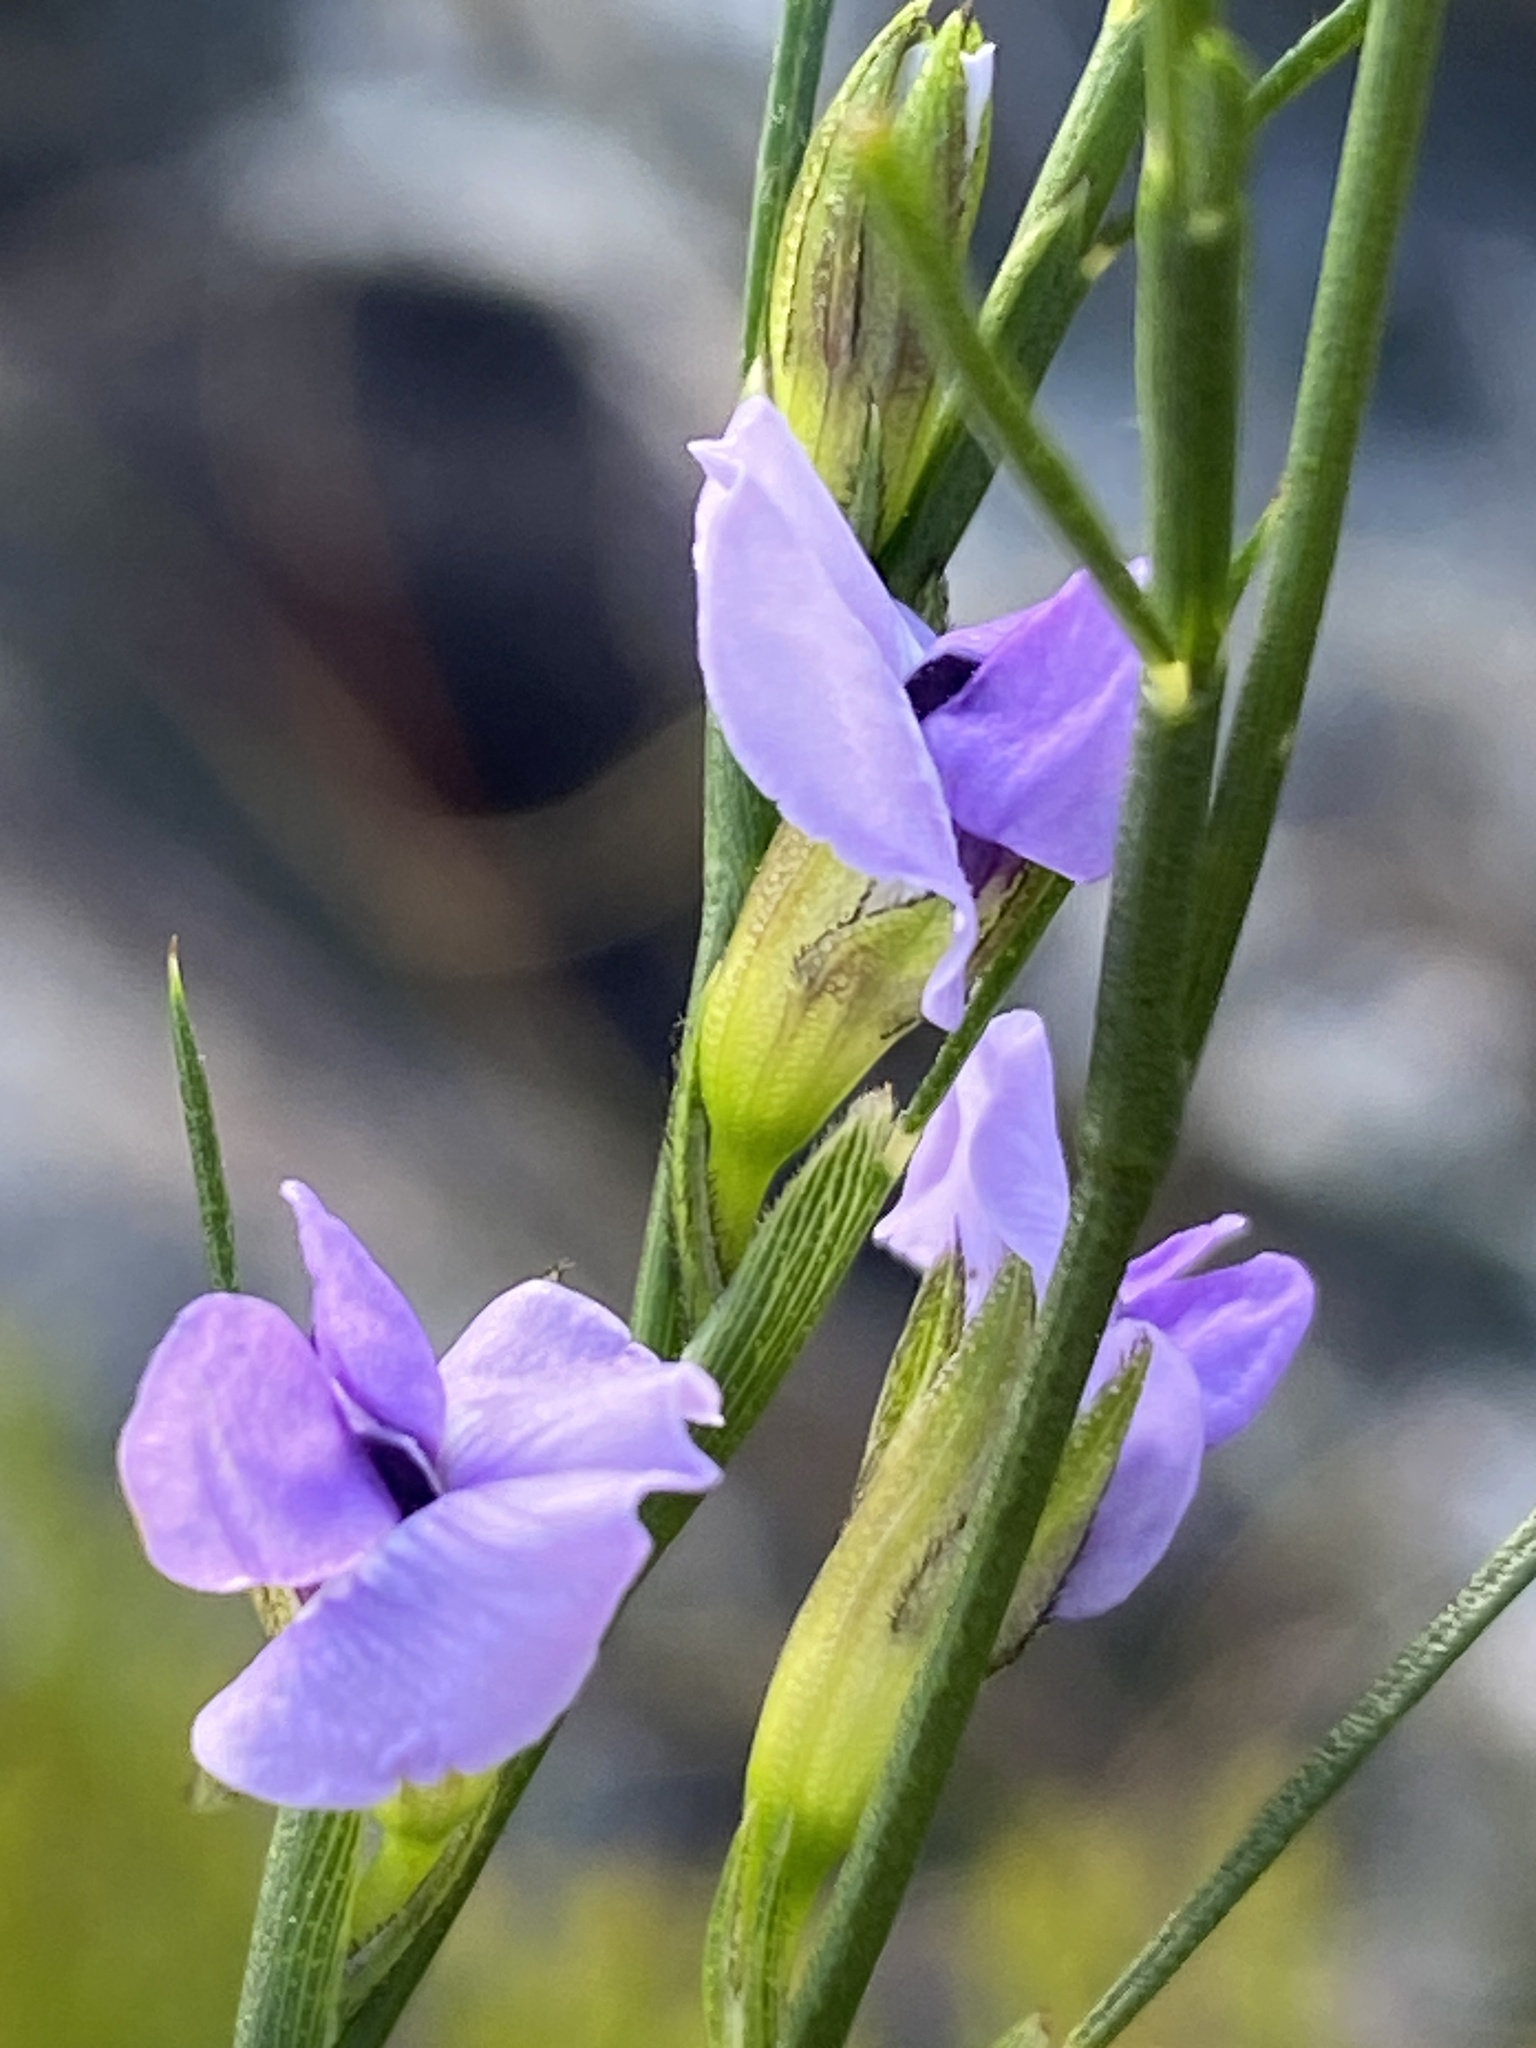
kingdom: Plantae
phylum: Tracheophyta
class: Magnoliopsida
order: Fabales
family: Fabaceae
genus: Psoralea
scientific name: Psoralea restioides
